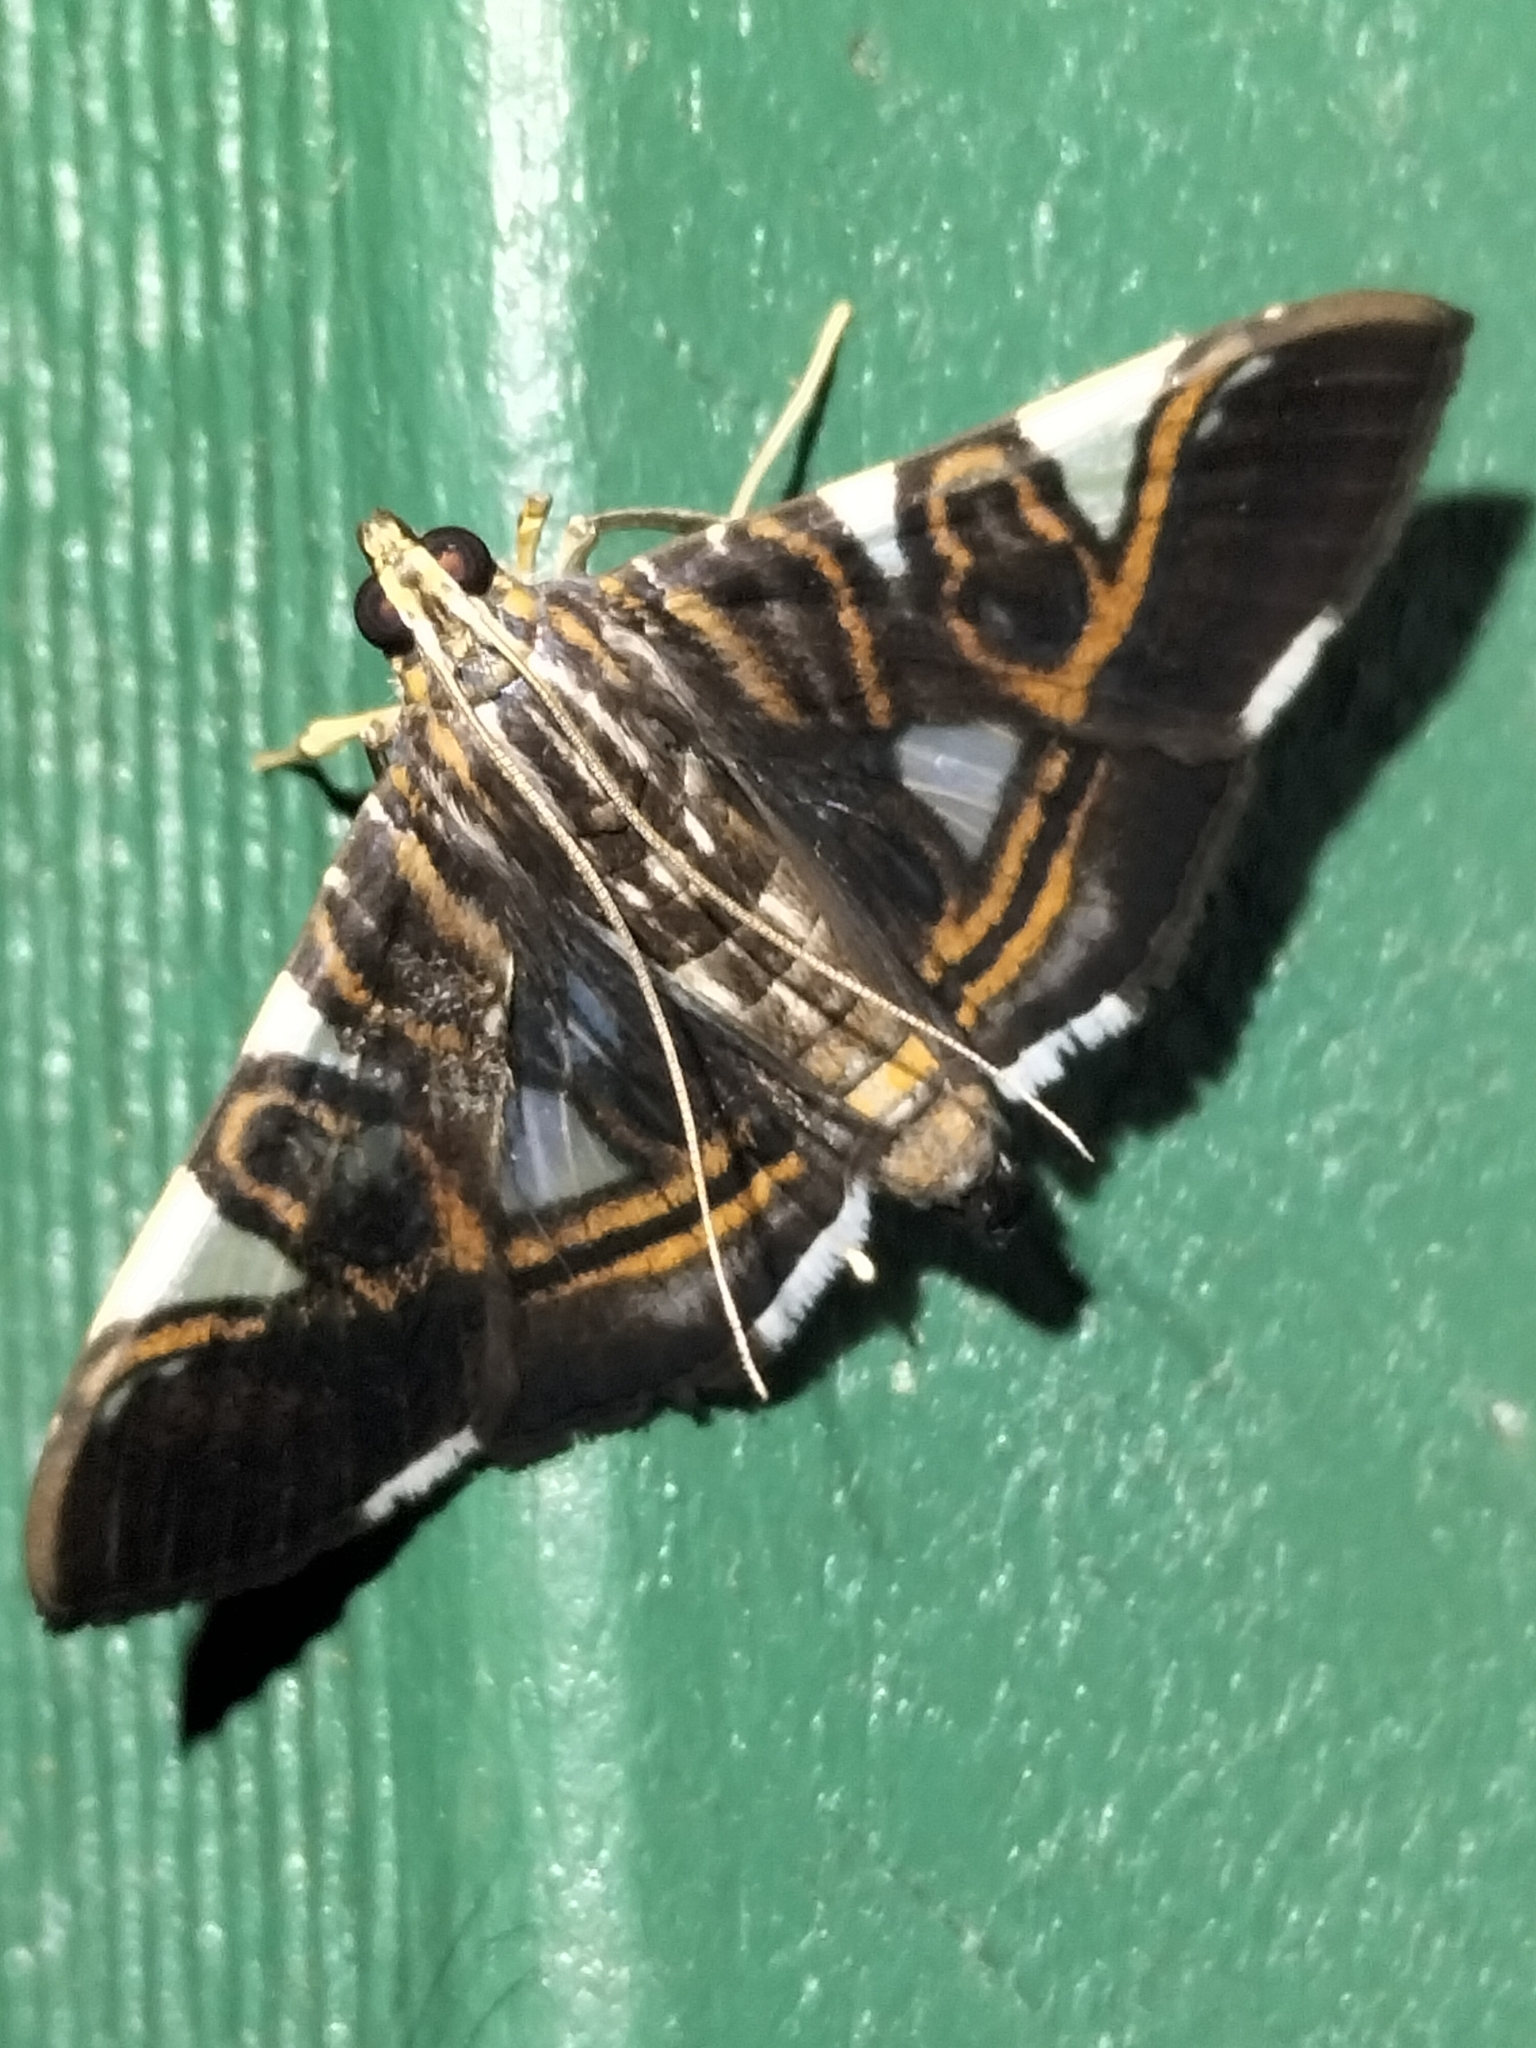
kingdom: Animalia
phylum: Arthropoda
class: Insecta
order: Lepidoptera
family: Crambidae
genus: Glyphodes
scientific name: Glyphodes margaritaria
